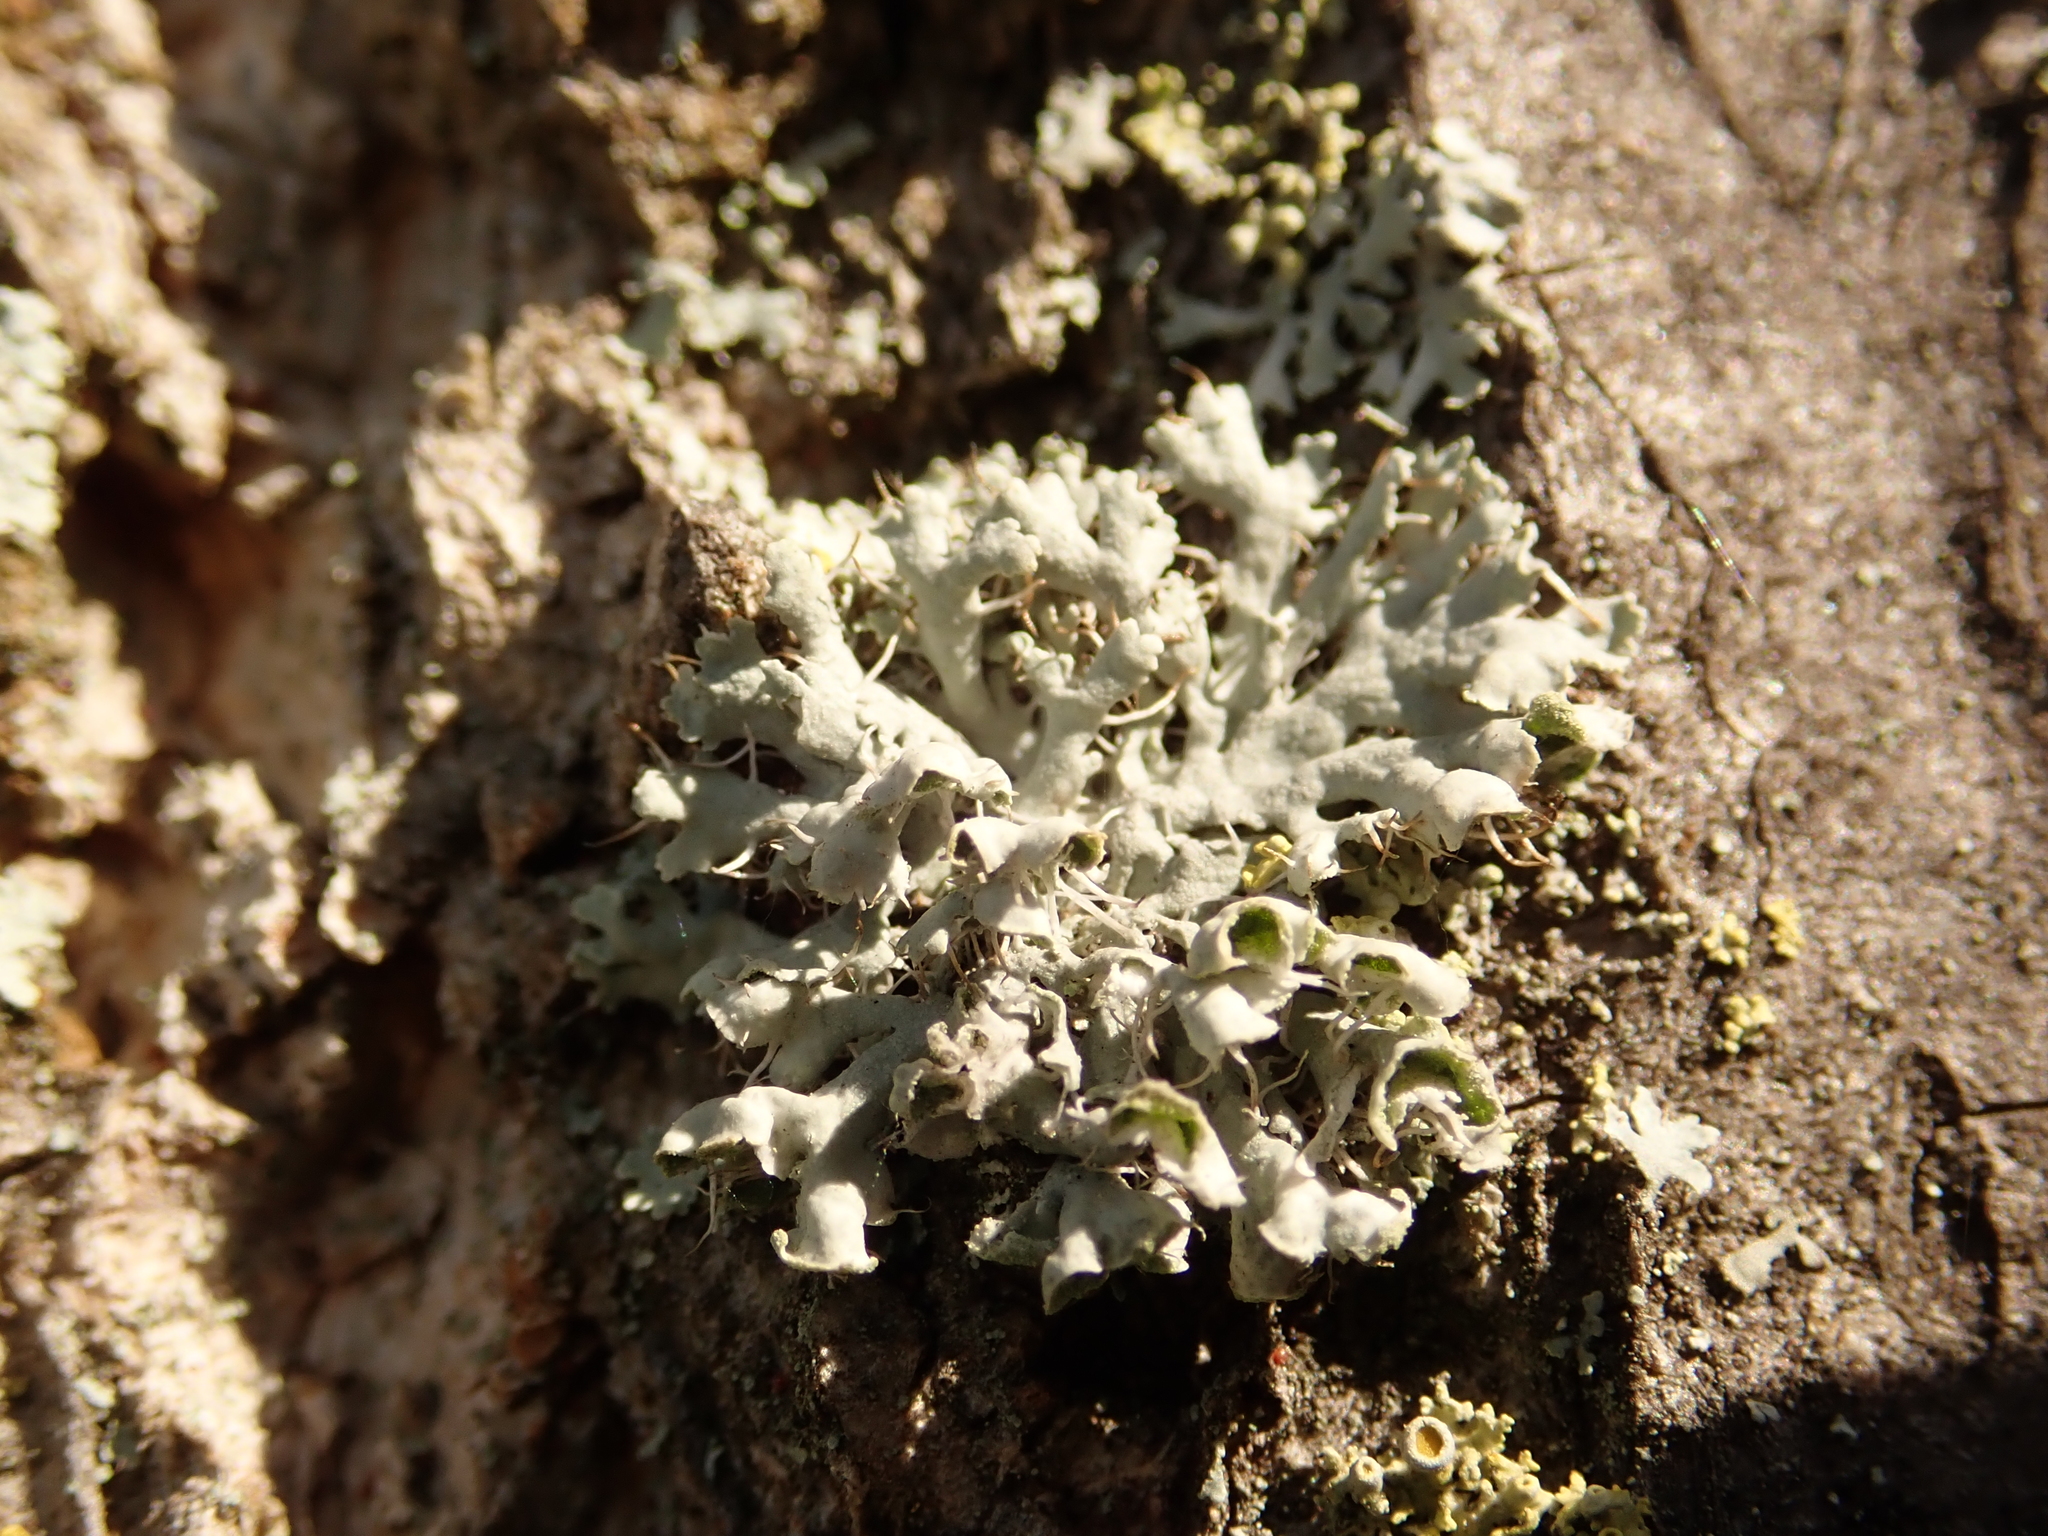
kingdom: Fungi
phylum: Ascomycota
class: Lecanoromycetes
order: Caliciales
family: Physciaceae
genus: Physcia
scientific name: Physcia adscendens
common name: Hooded rosette lichen
